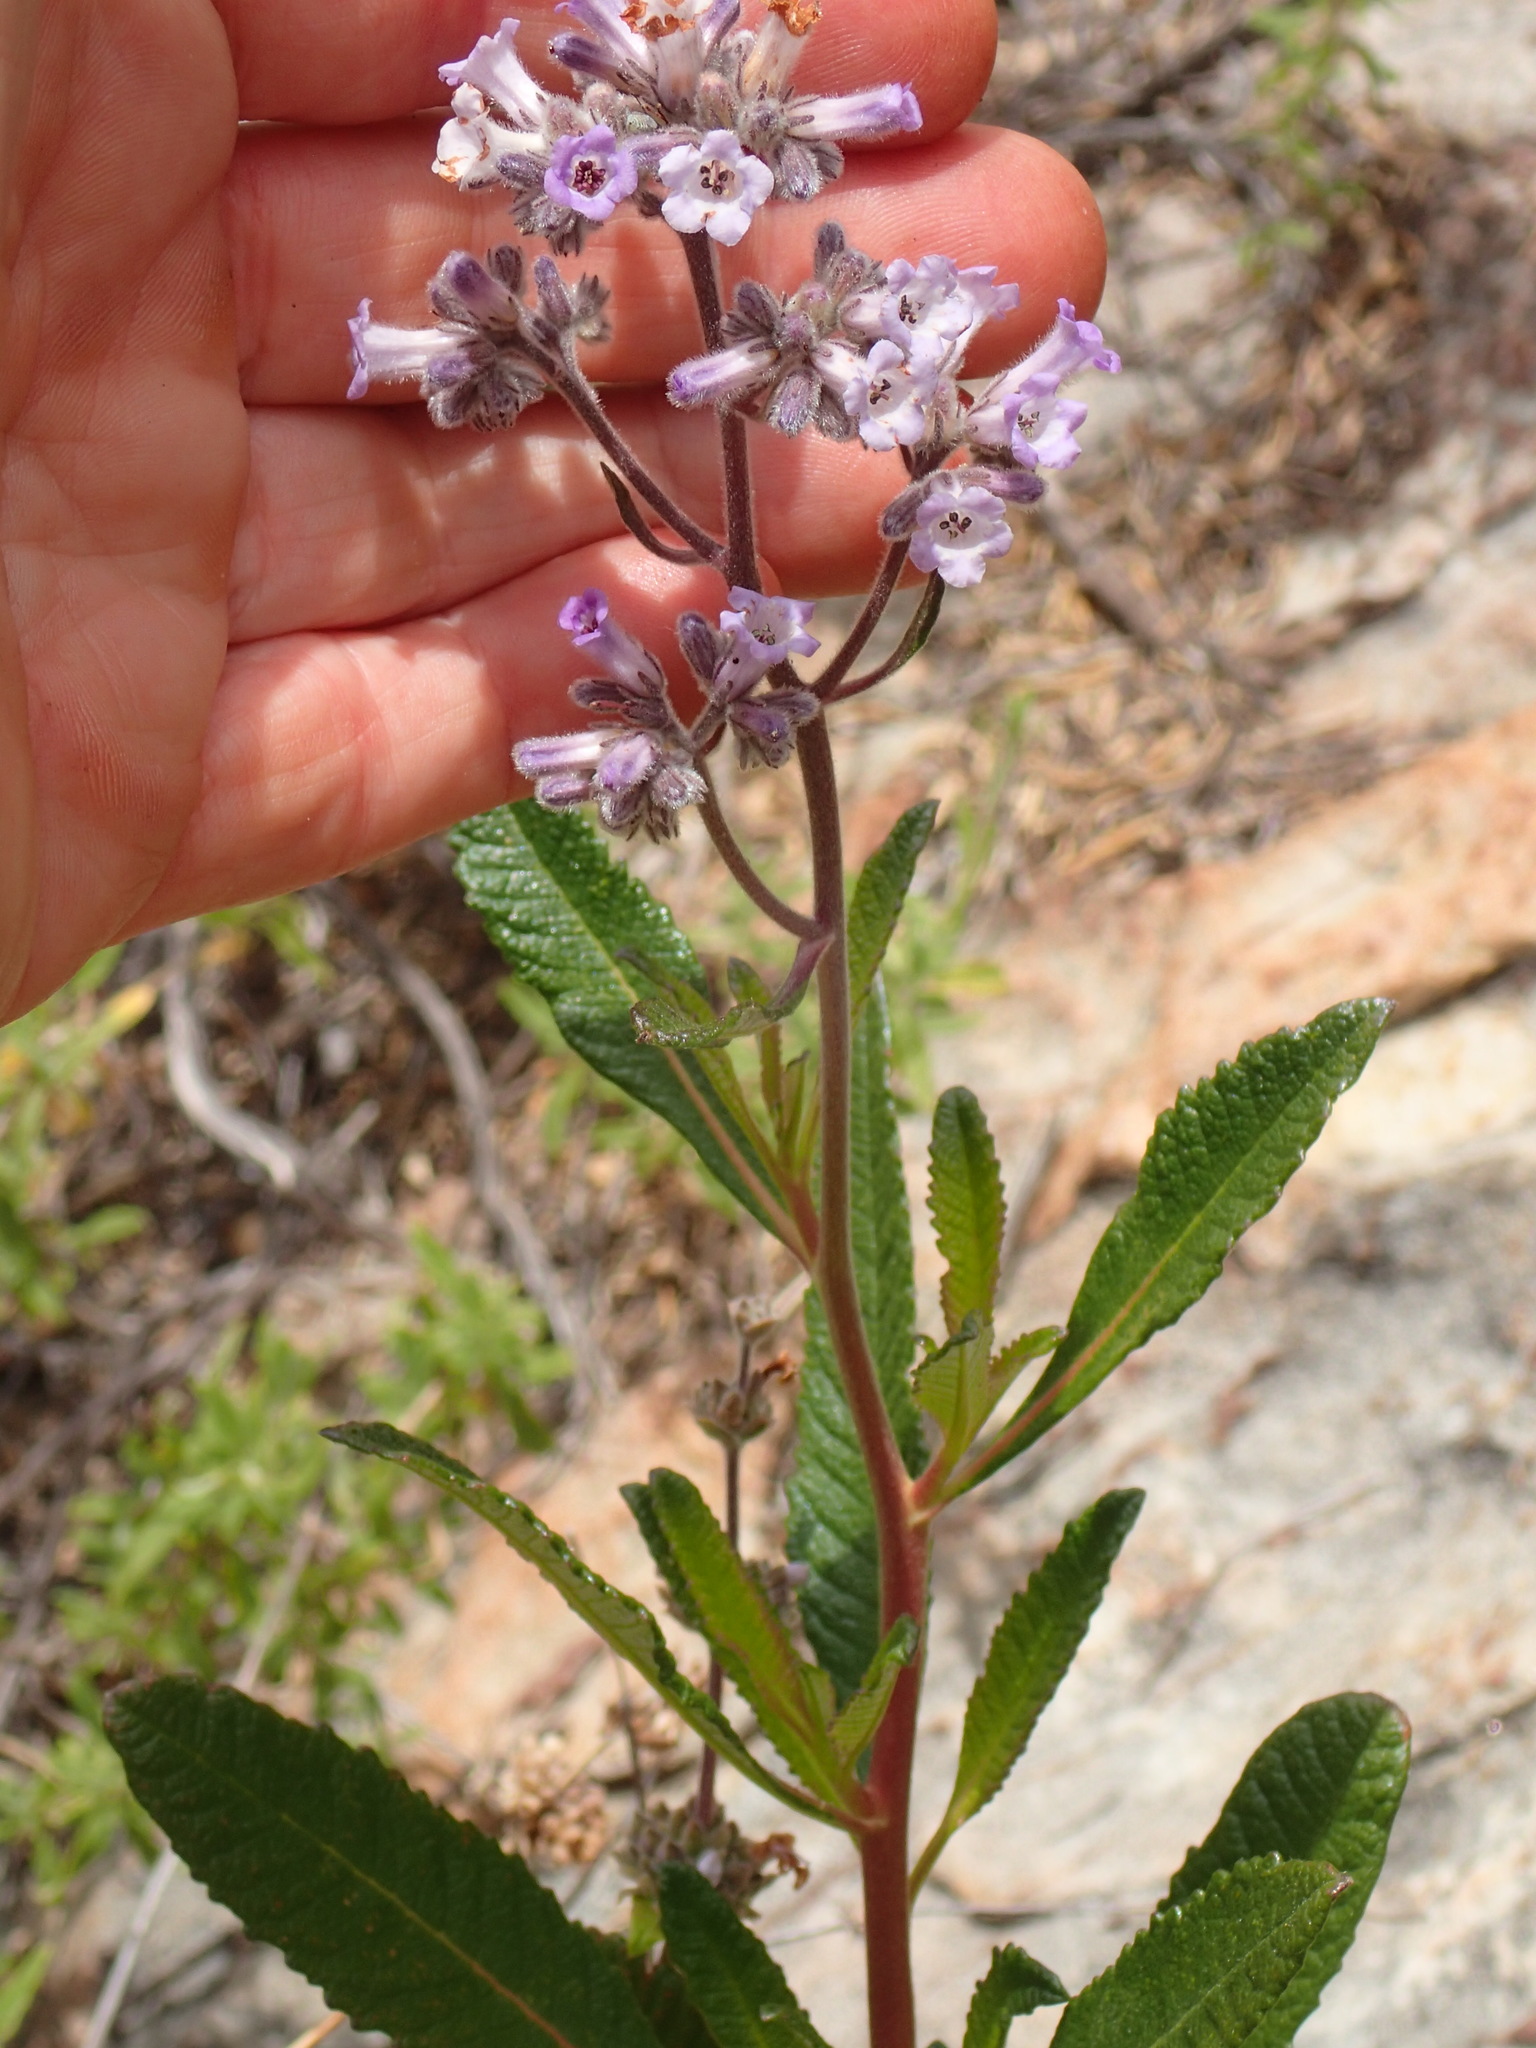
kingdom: Plantae
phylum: Tracheophyta
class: Magnoliopsida
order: Boraginales
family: Namaceae
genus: Eriodictyon
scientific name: Eriodictyon crassifolium
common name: Thick-leaf yerba-santa
